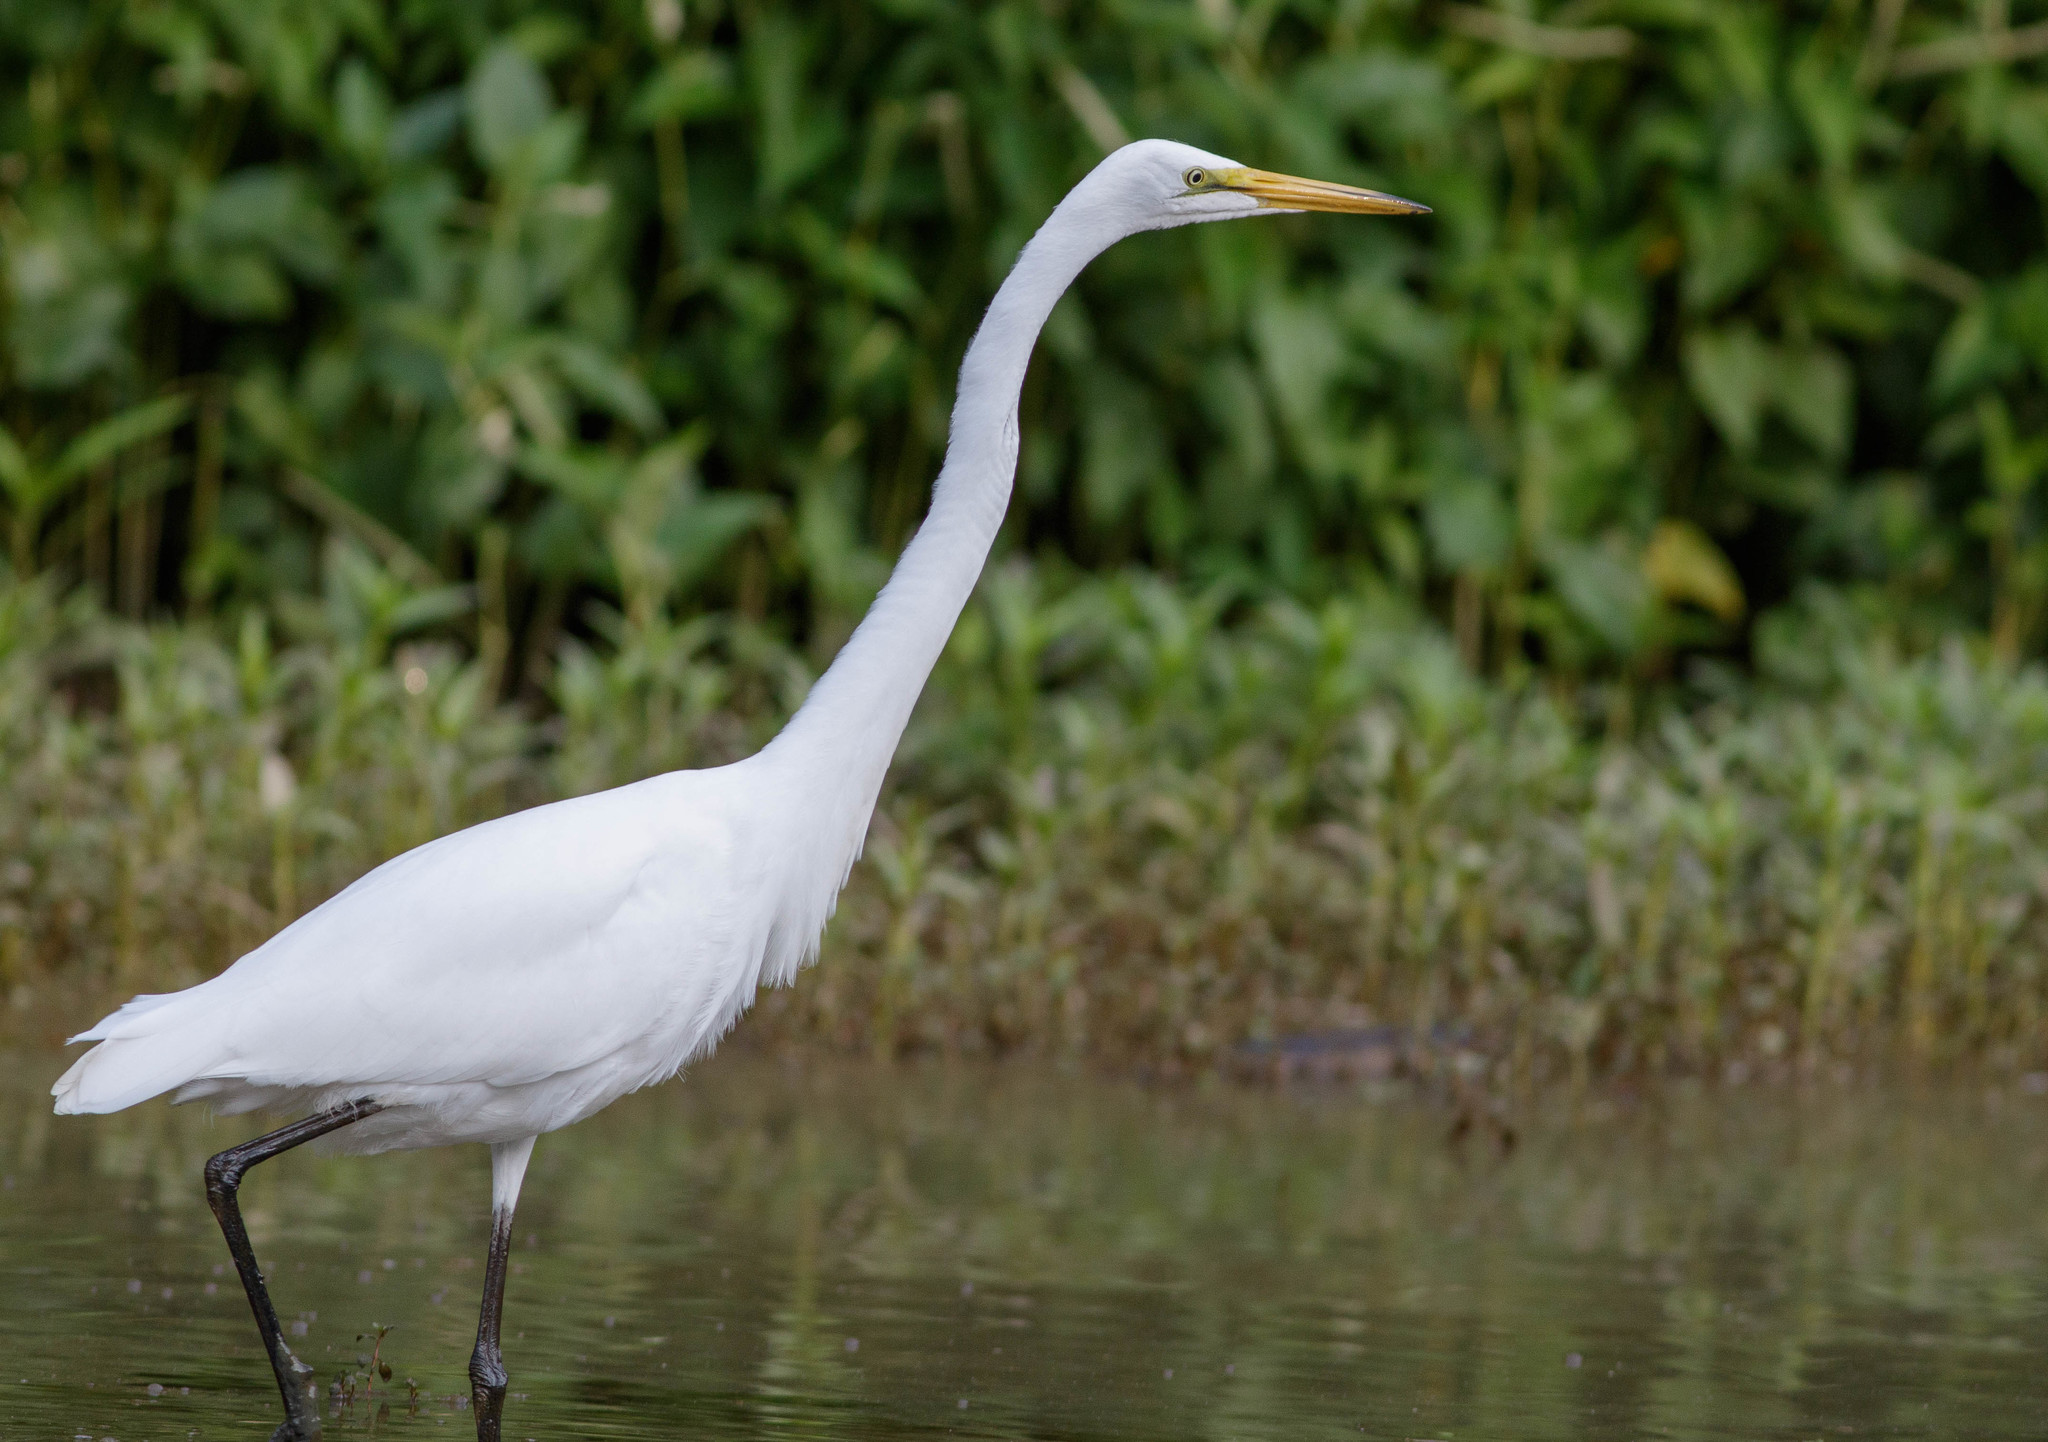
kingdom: Animalia
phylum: Chordata
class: Aves
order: Pelecaniformes
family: Ardeidae
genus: Ardea
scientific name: Ardea alba
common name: Great egret
